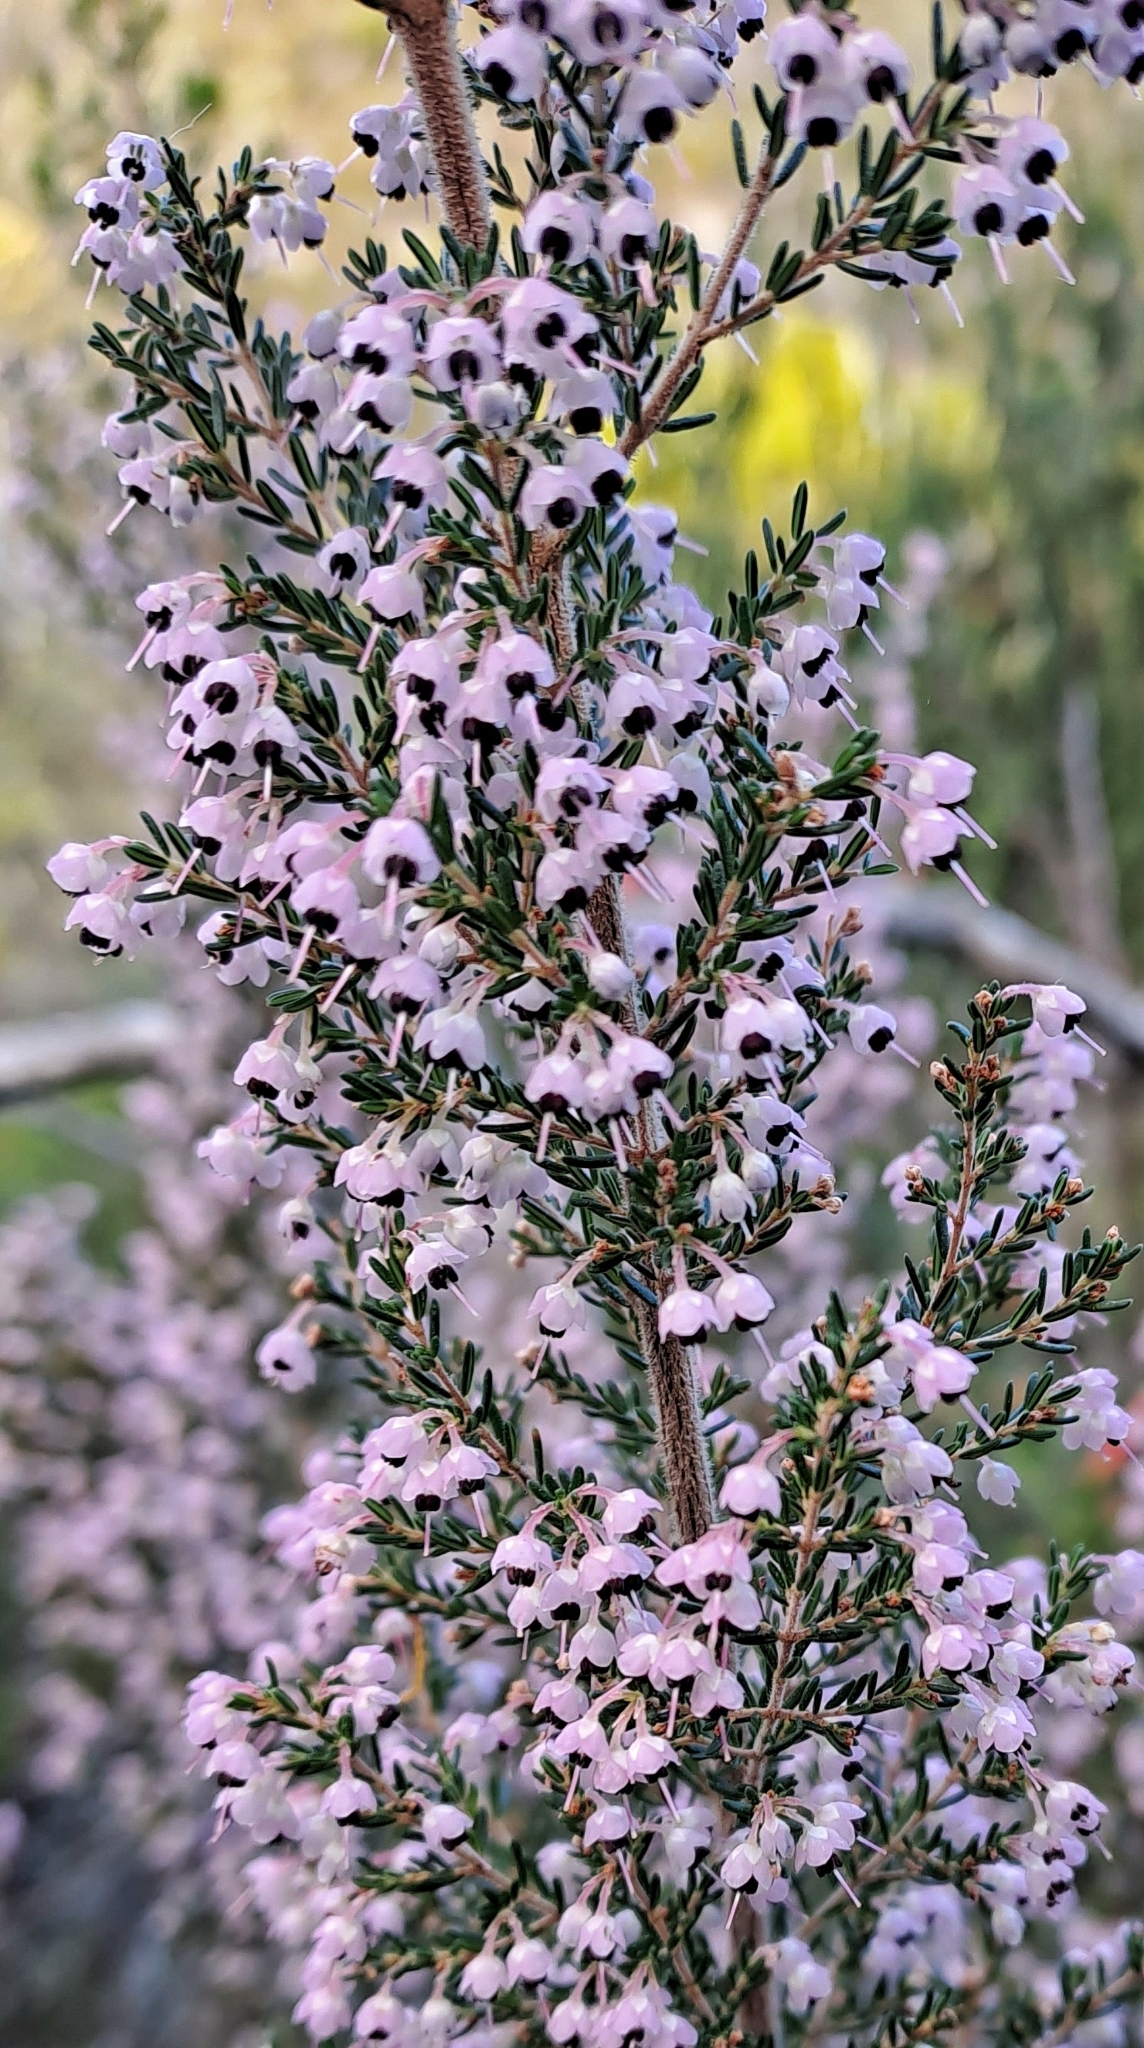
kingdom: Plantae
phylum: Tracheophyta
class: Magnoliopsida
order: Ericales
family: Ericaceae
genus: Erica
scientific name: Erica canaliculata
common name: Hairy grey heather
